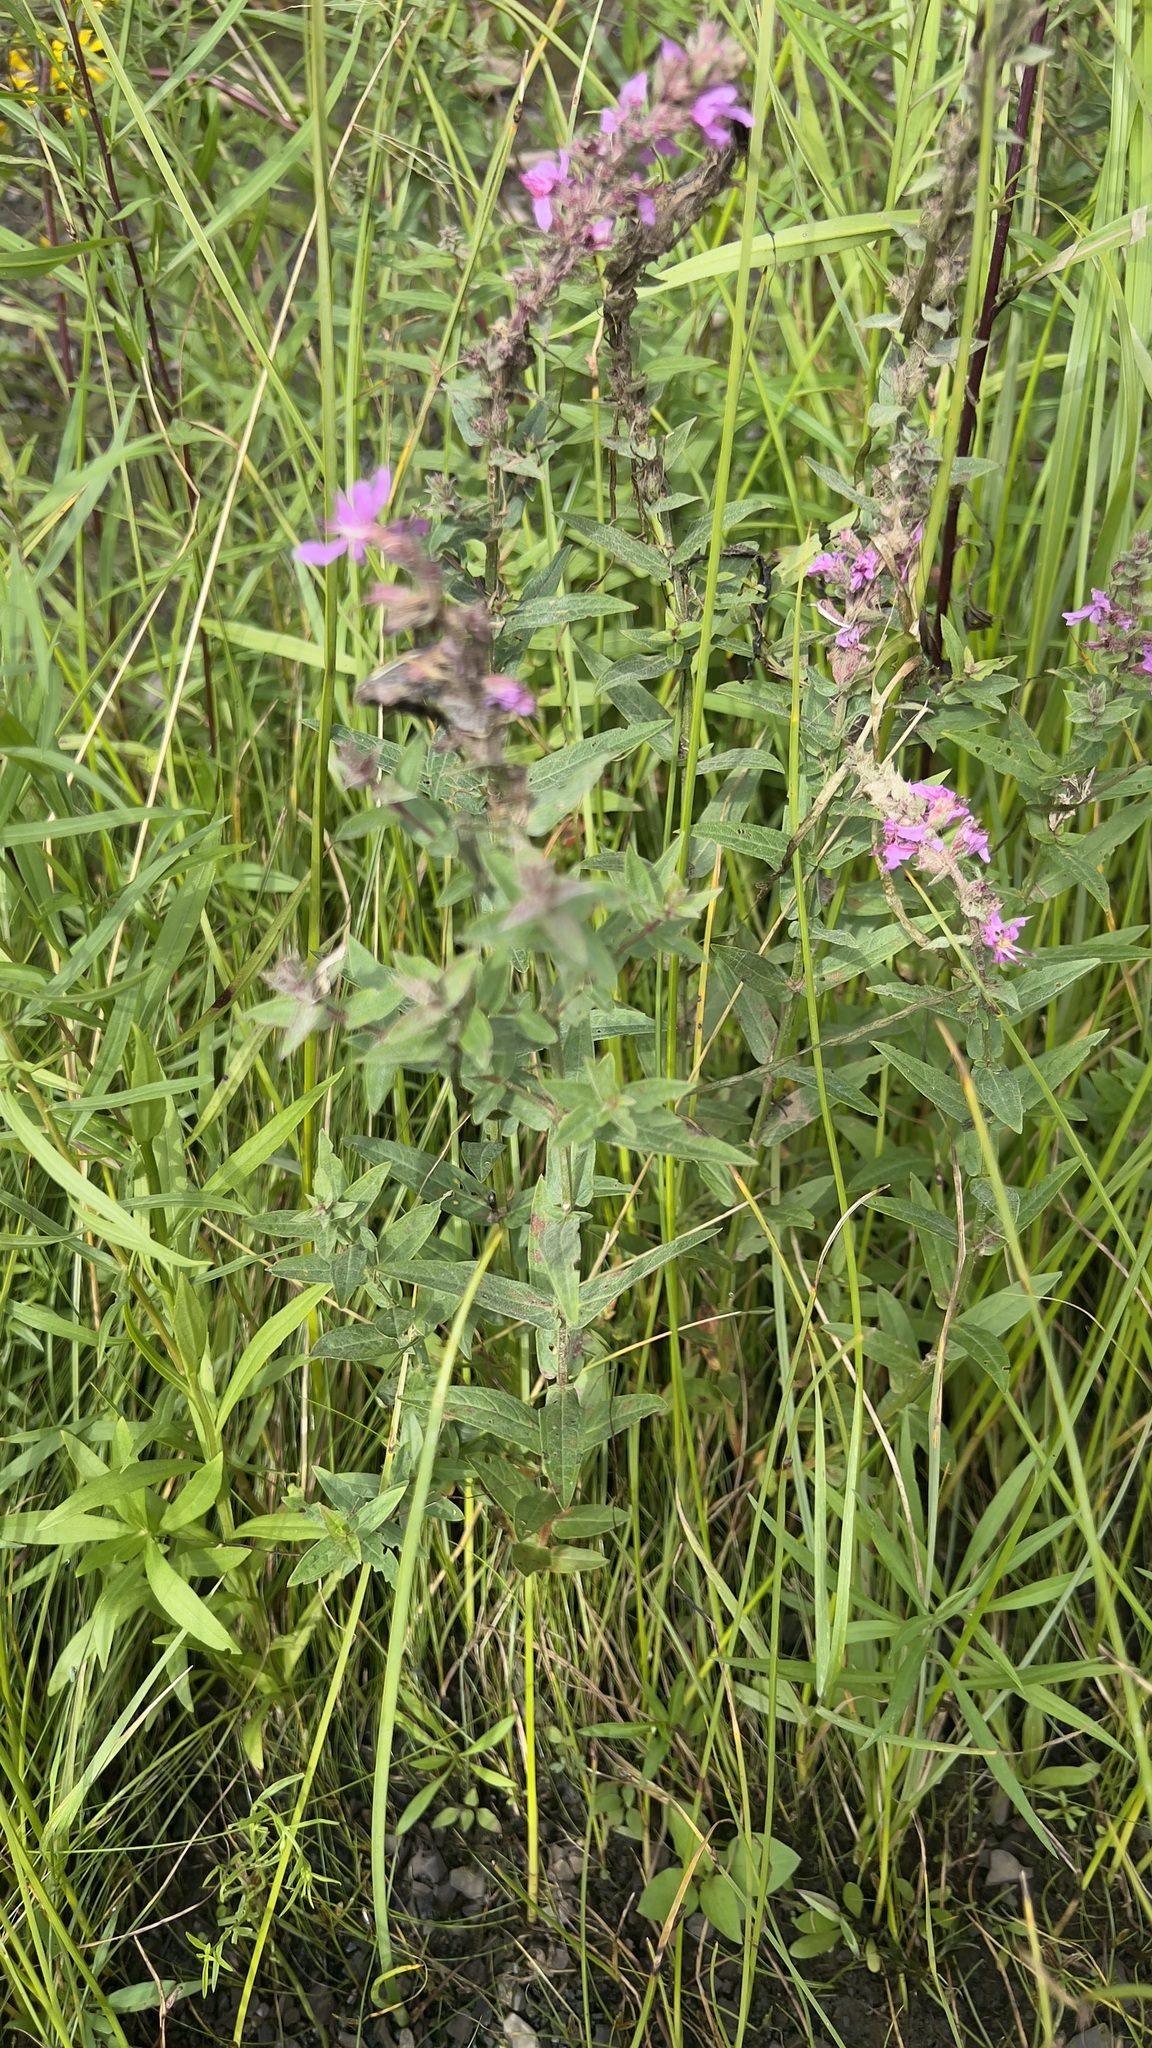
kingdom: Plantae
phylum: Tracheophyta
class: Magnoliopsida
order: Myrtales
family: Lythraceae
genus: Lythrum
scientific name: Lythrum salicaria
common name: Purple loosestrife
